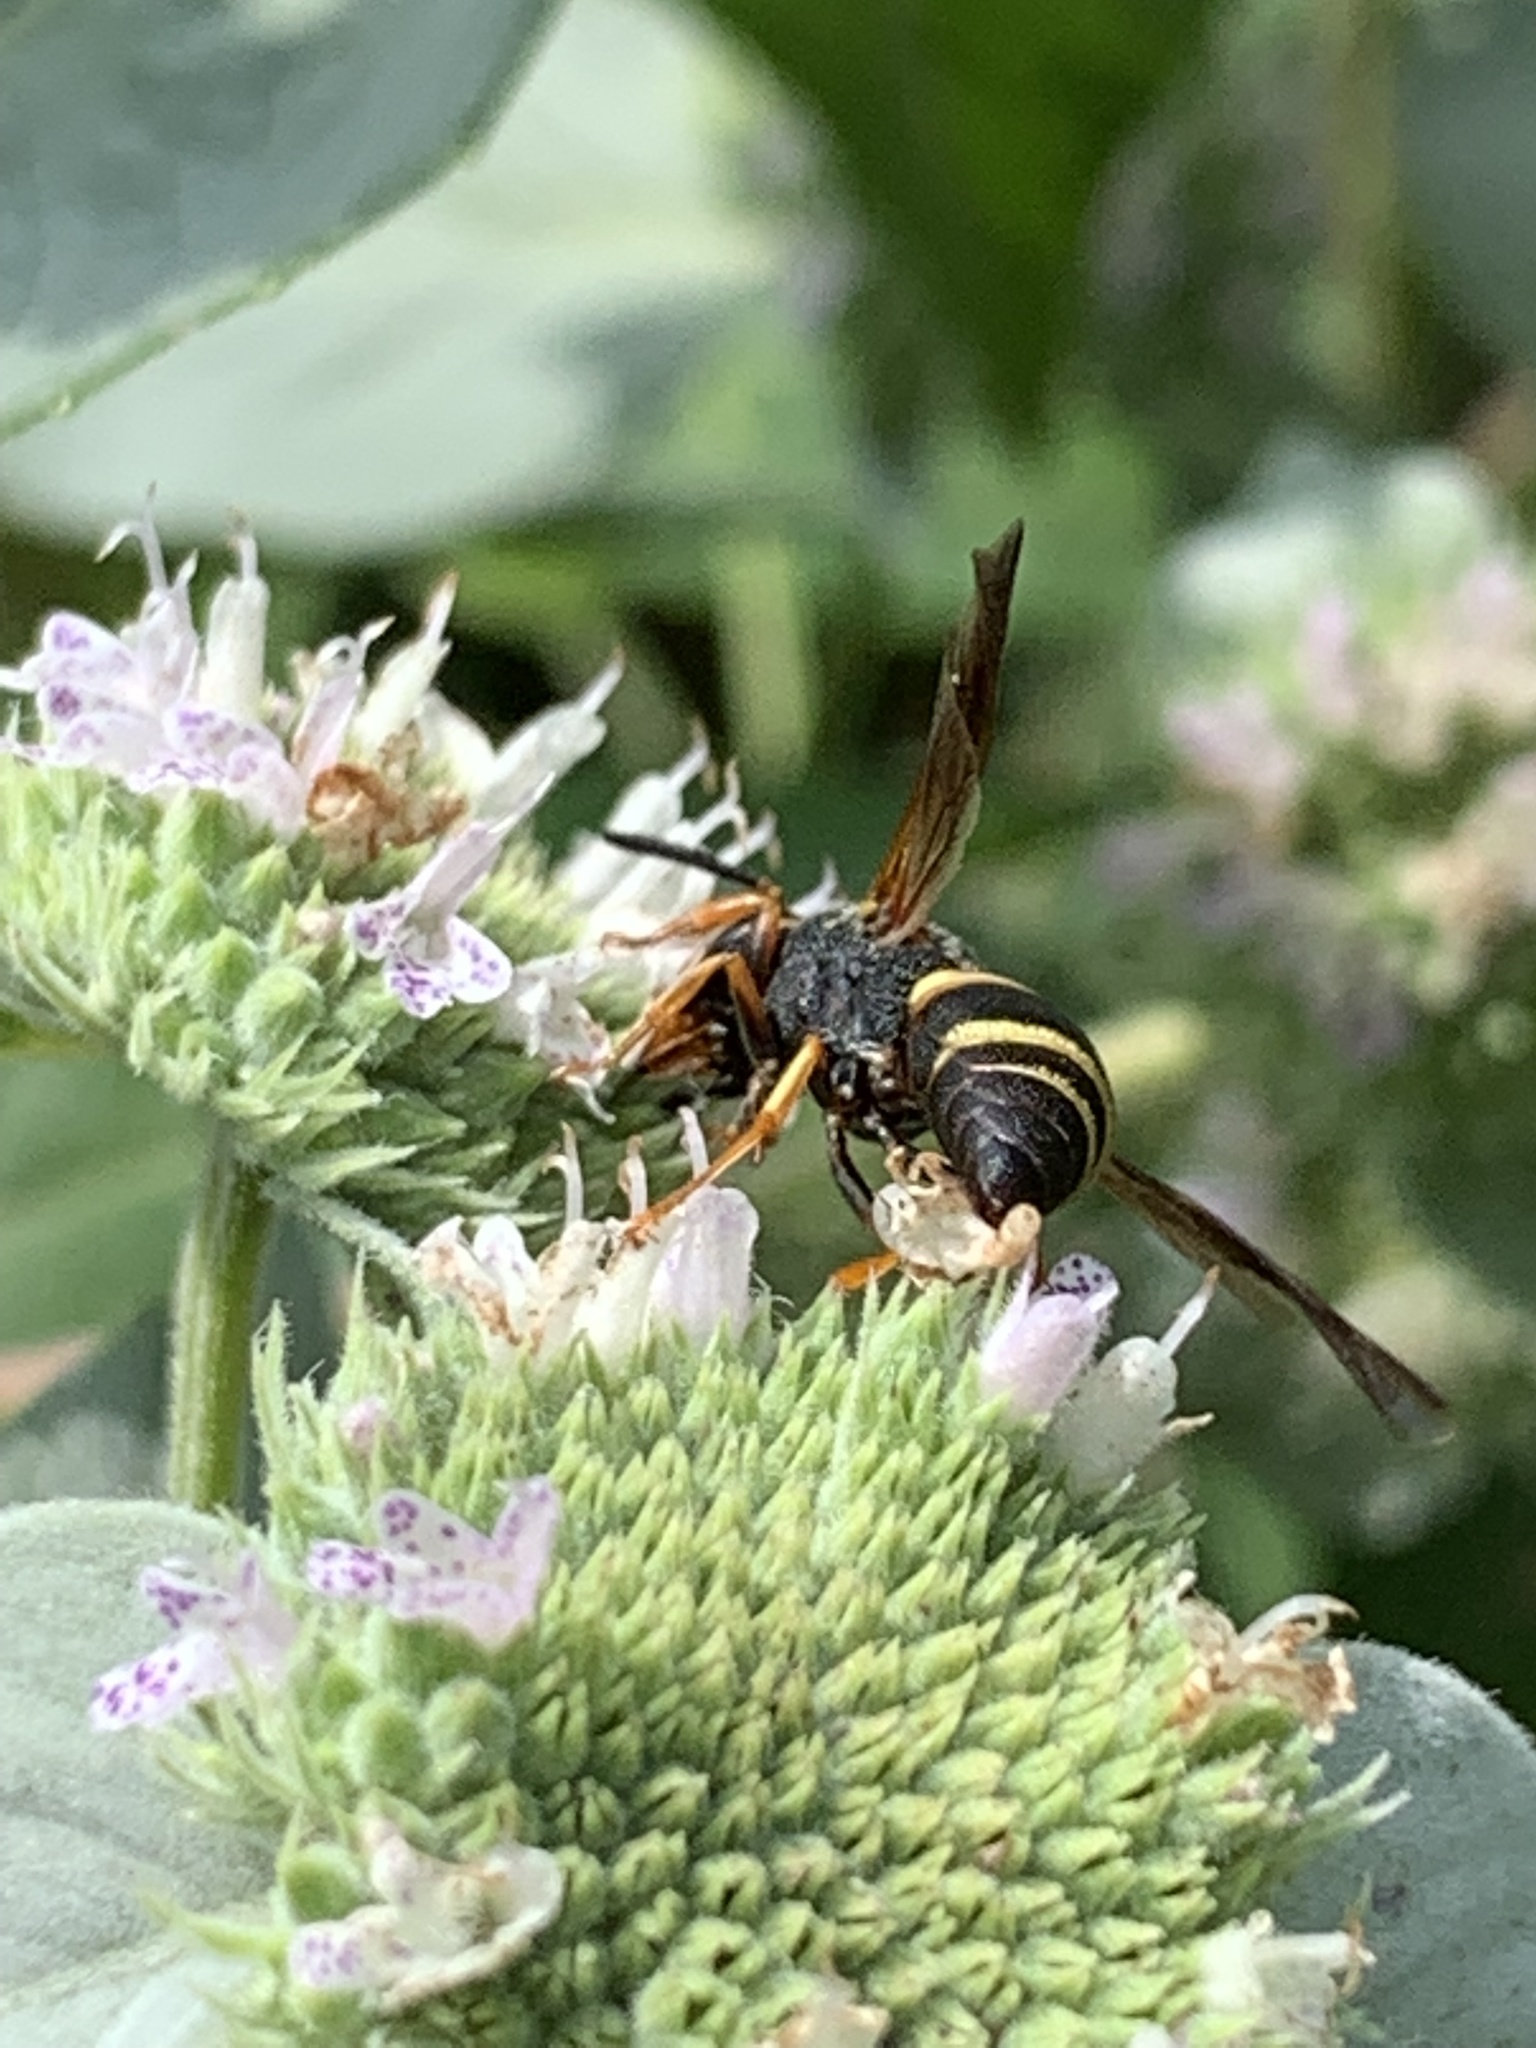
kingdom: Animalia
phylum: Arthropoda
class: Insecta
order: Hymenoptera
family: Eumenidae
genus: Euodynerus
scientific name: Euodynerus hidalgo
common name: Wasp
